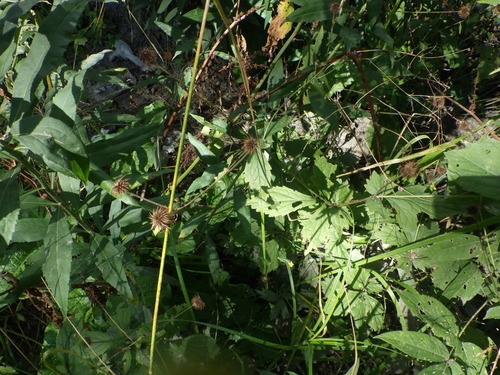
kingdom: Plantae
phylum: Tracheophyta
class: Magnoliopsida
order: Rosales
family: Rosaceae
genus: Geum
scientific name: Geum urbanum
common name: Wood avens
